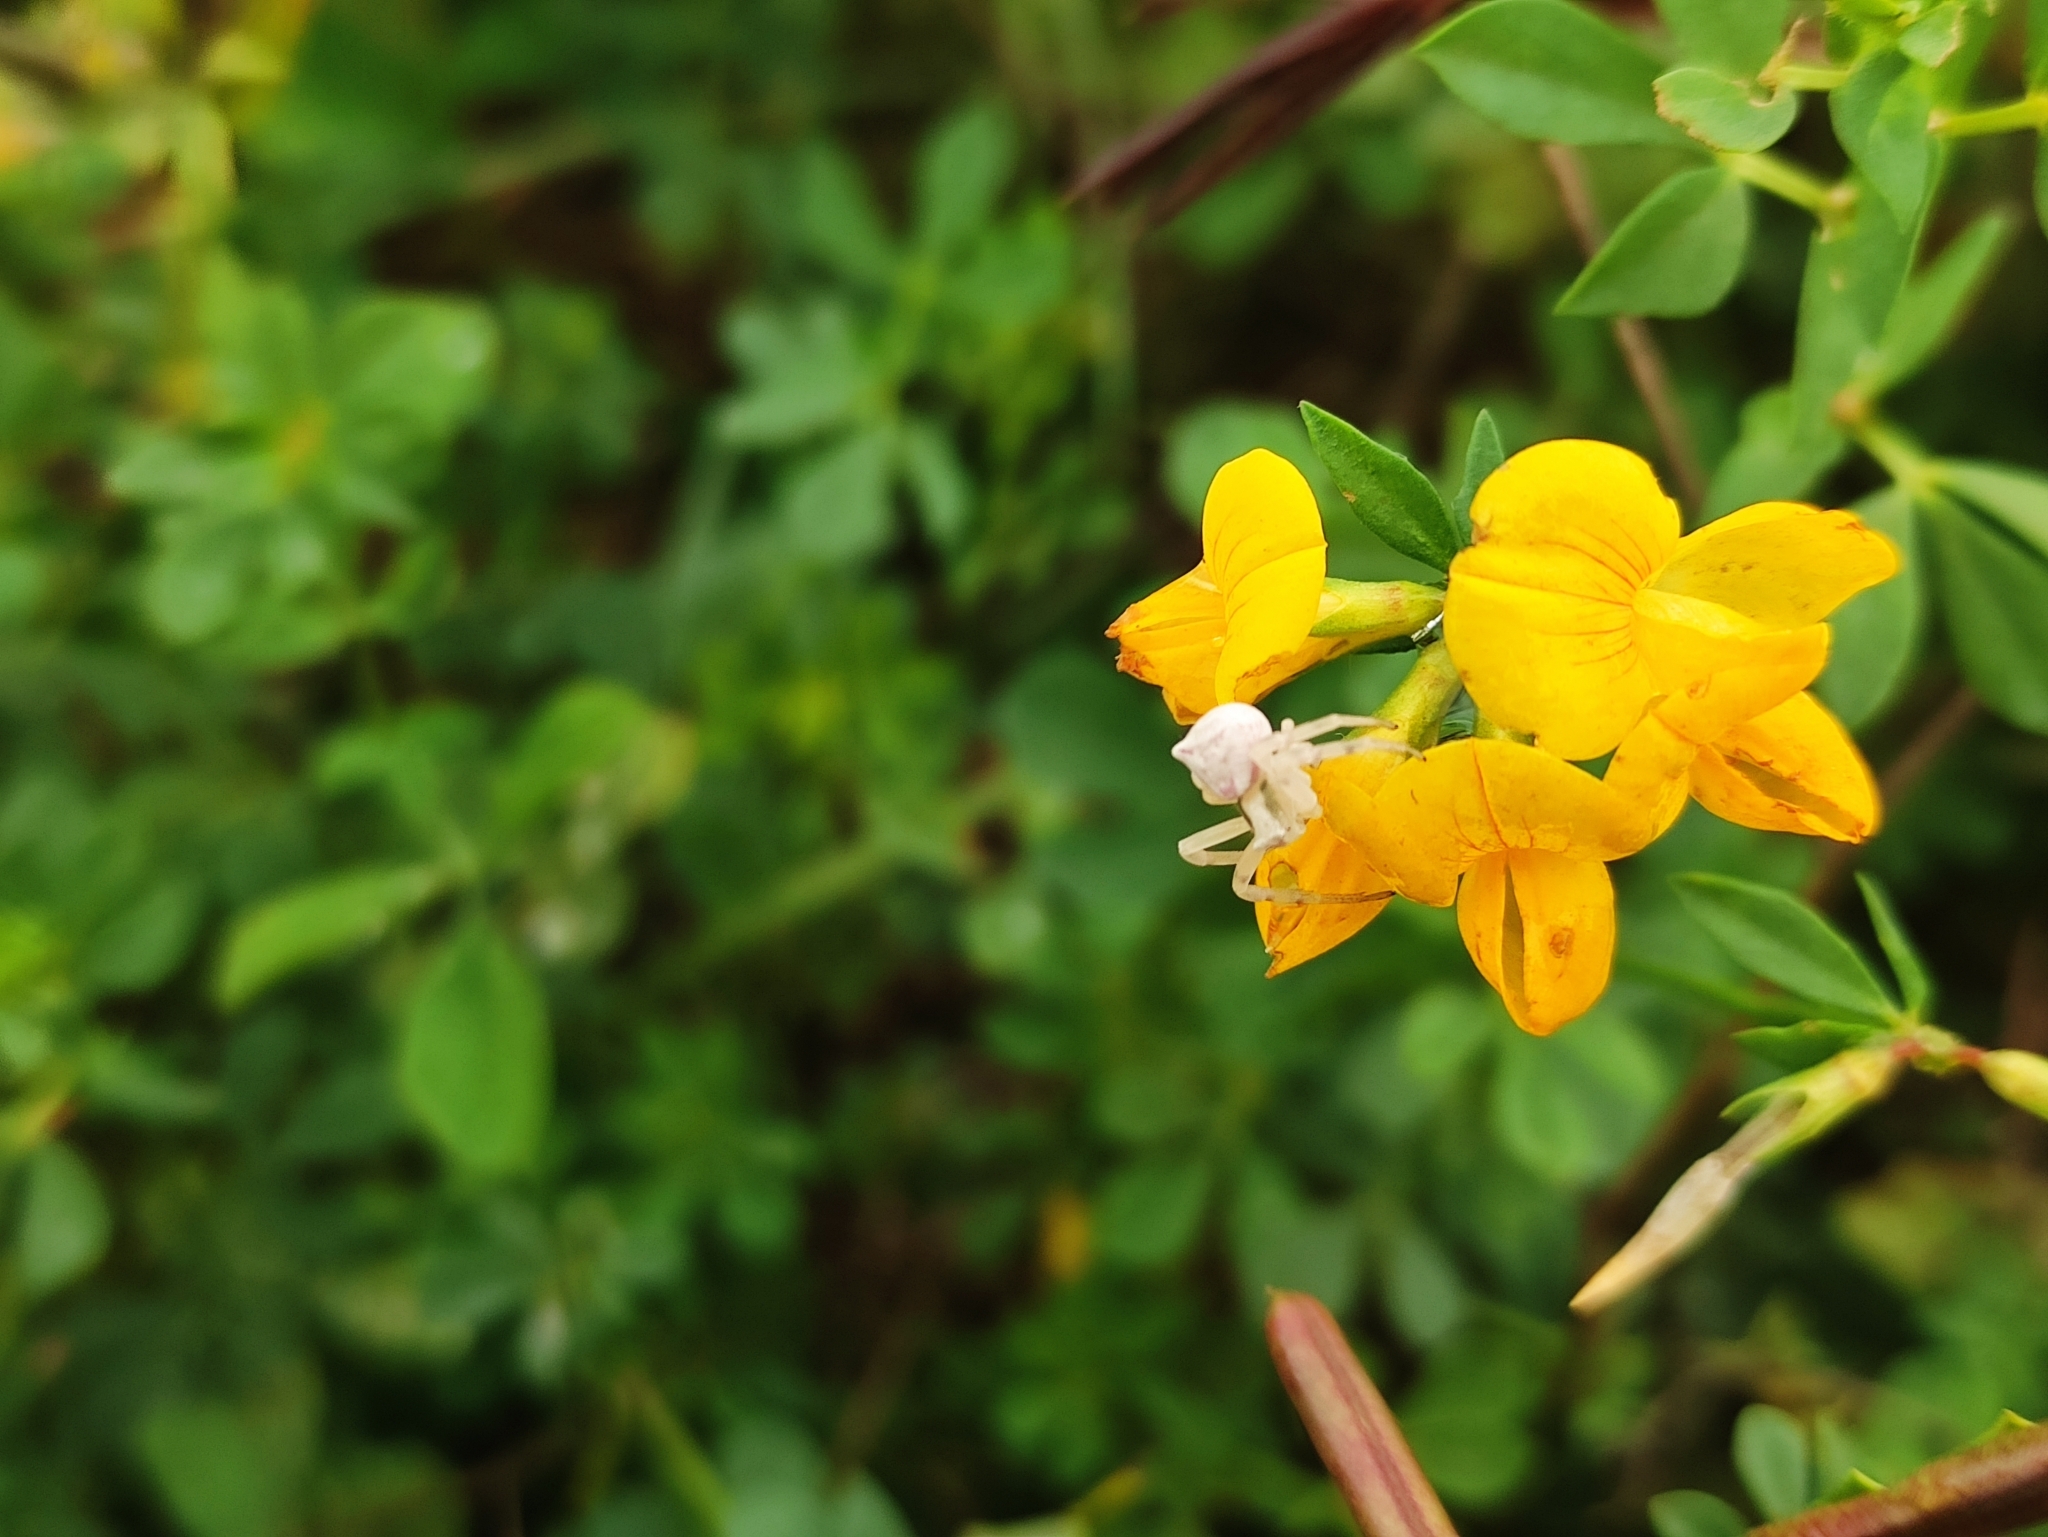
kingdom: Animalia
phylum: Arthropoda
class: Arachnida
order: Araneae
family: Thomisidae
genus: Thomisus
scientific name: Thomisus onustus
